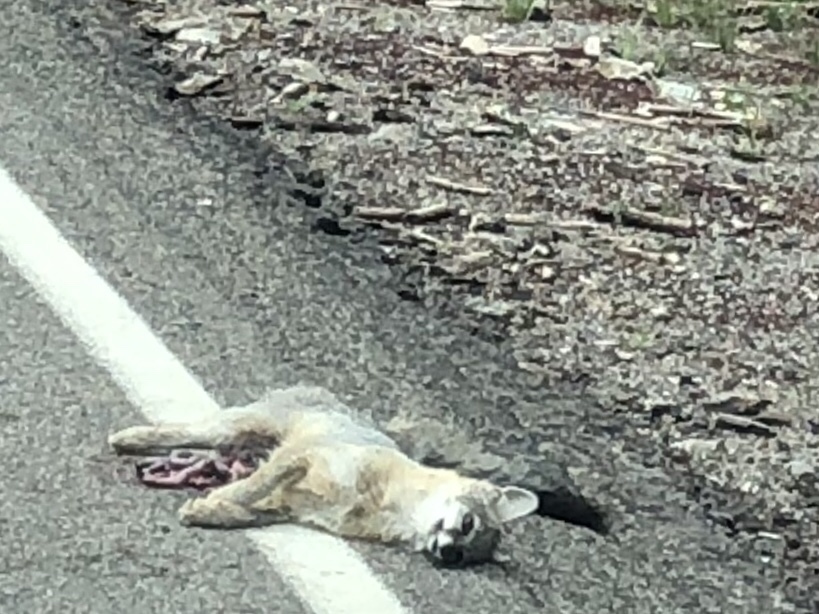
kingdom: Animalia
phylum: Chordata
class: Mammalia
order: Carnivora
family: Canidae
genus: Urocyon
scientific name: Urocyon cinereoargenteus
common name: Gray fox
